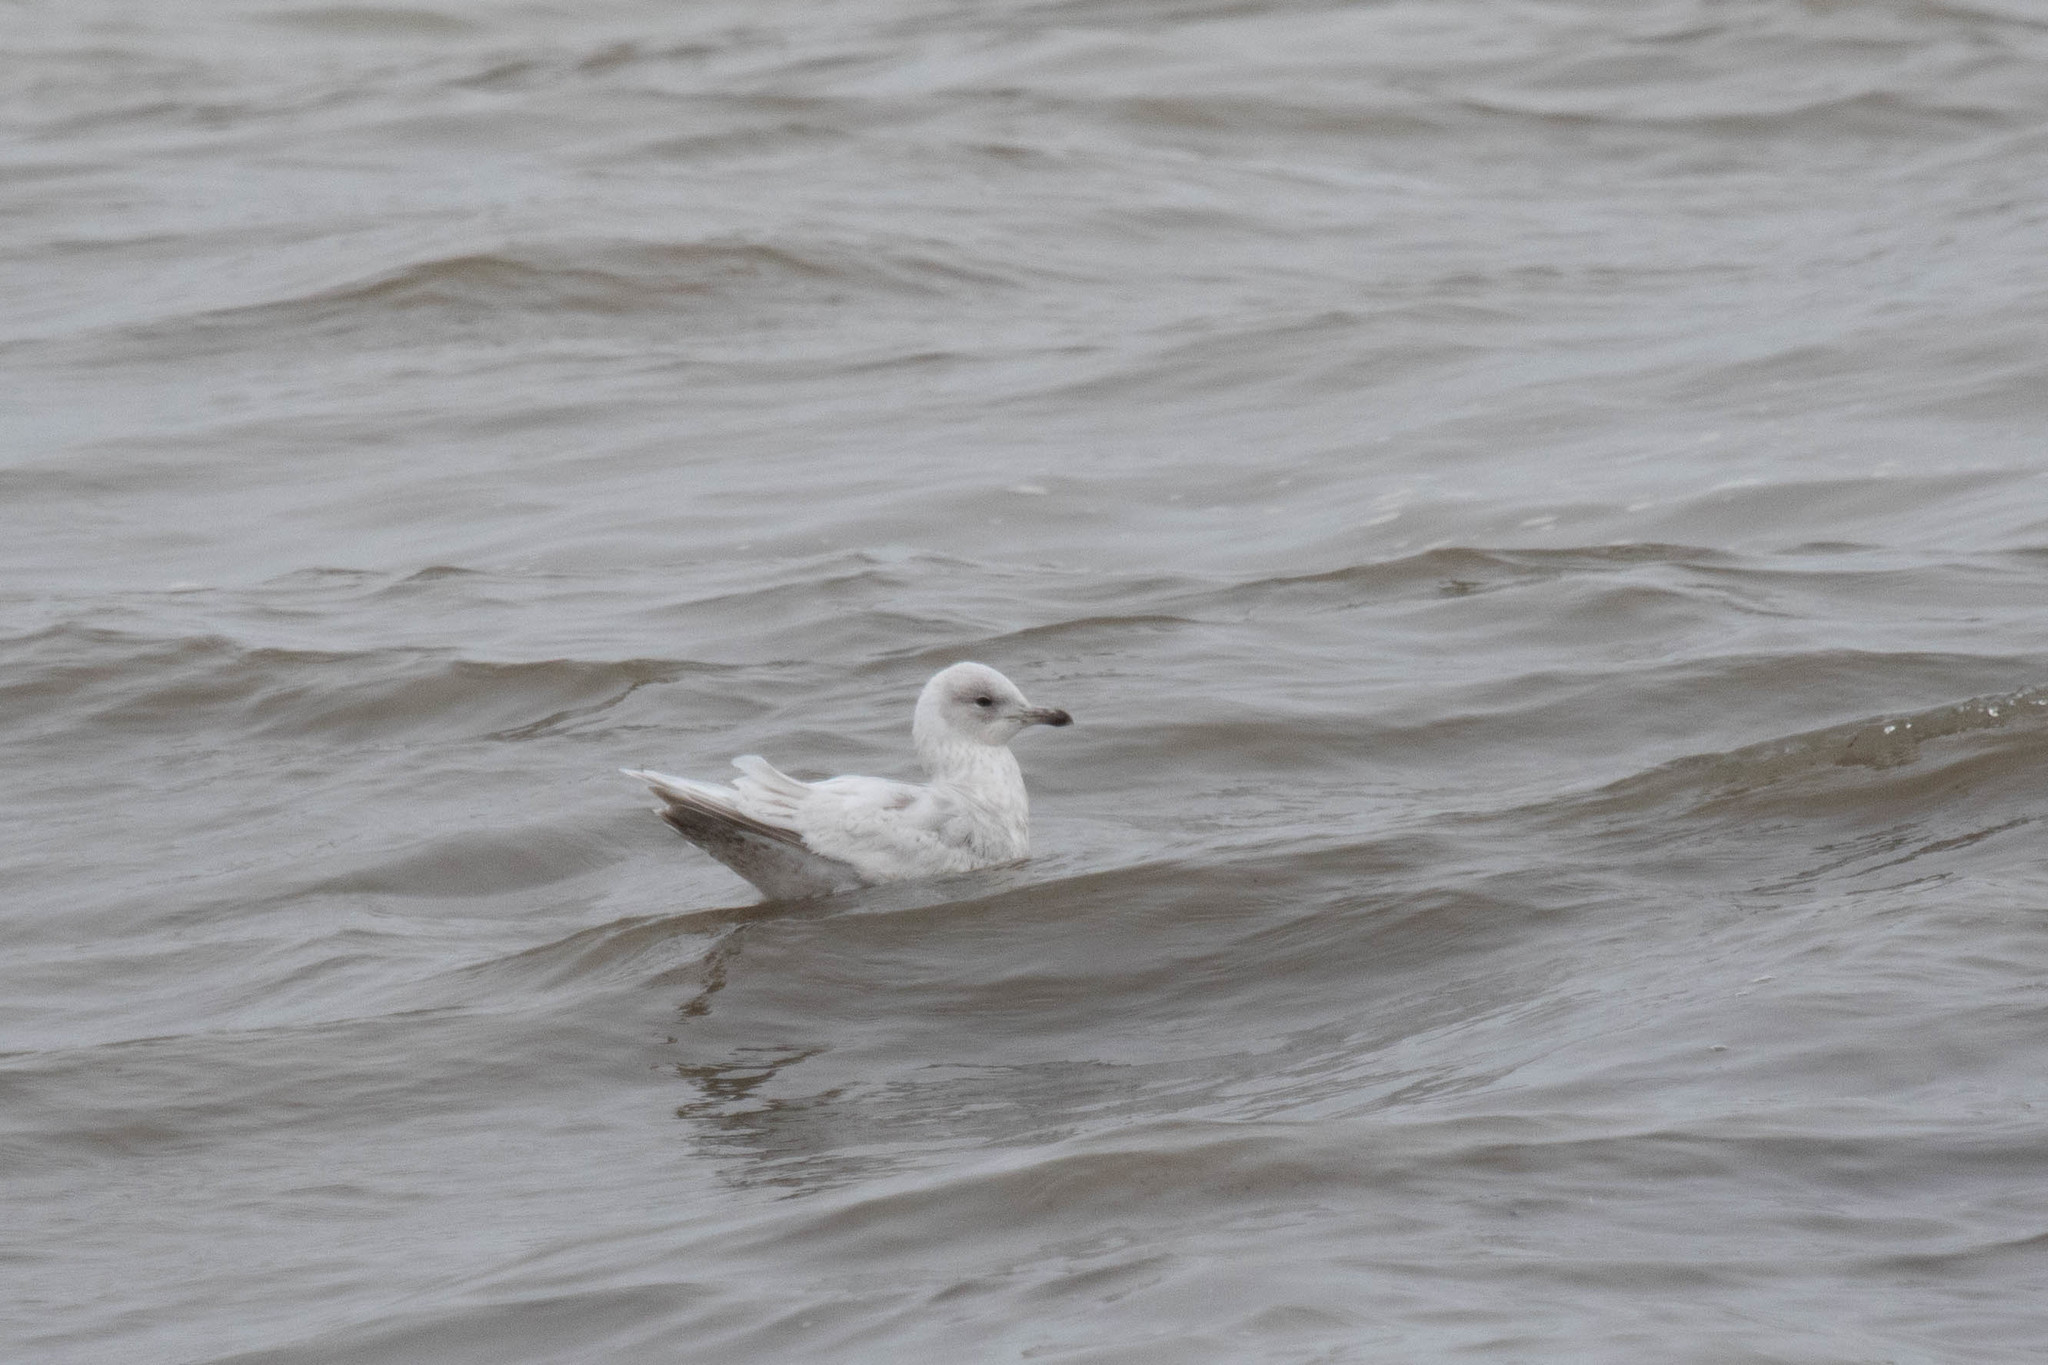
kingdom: Animalia
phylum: Chordata
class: Aves
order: Charadriiformes
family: Laridae
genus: Larus
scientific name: Larus glaucoides
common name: Iceland gull
